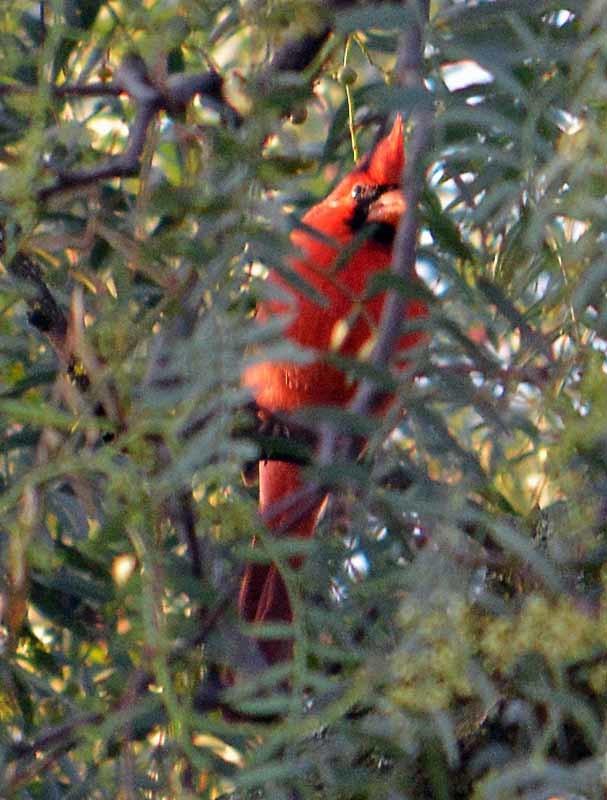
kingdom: Animalia
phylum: Chordata
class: Aves
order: Passeriformes
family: Cardinalidae
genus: Cardinalis
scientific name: Cardinalis cardinalis
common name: Northern cardinal
